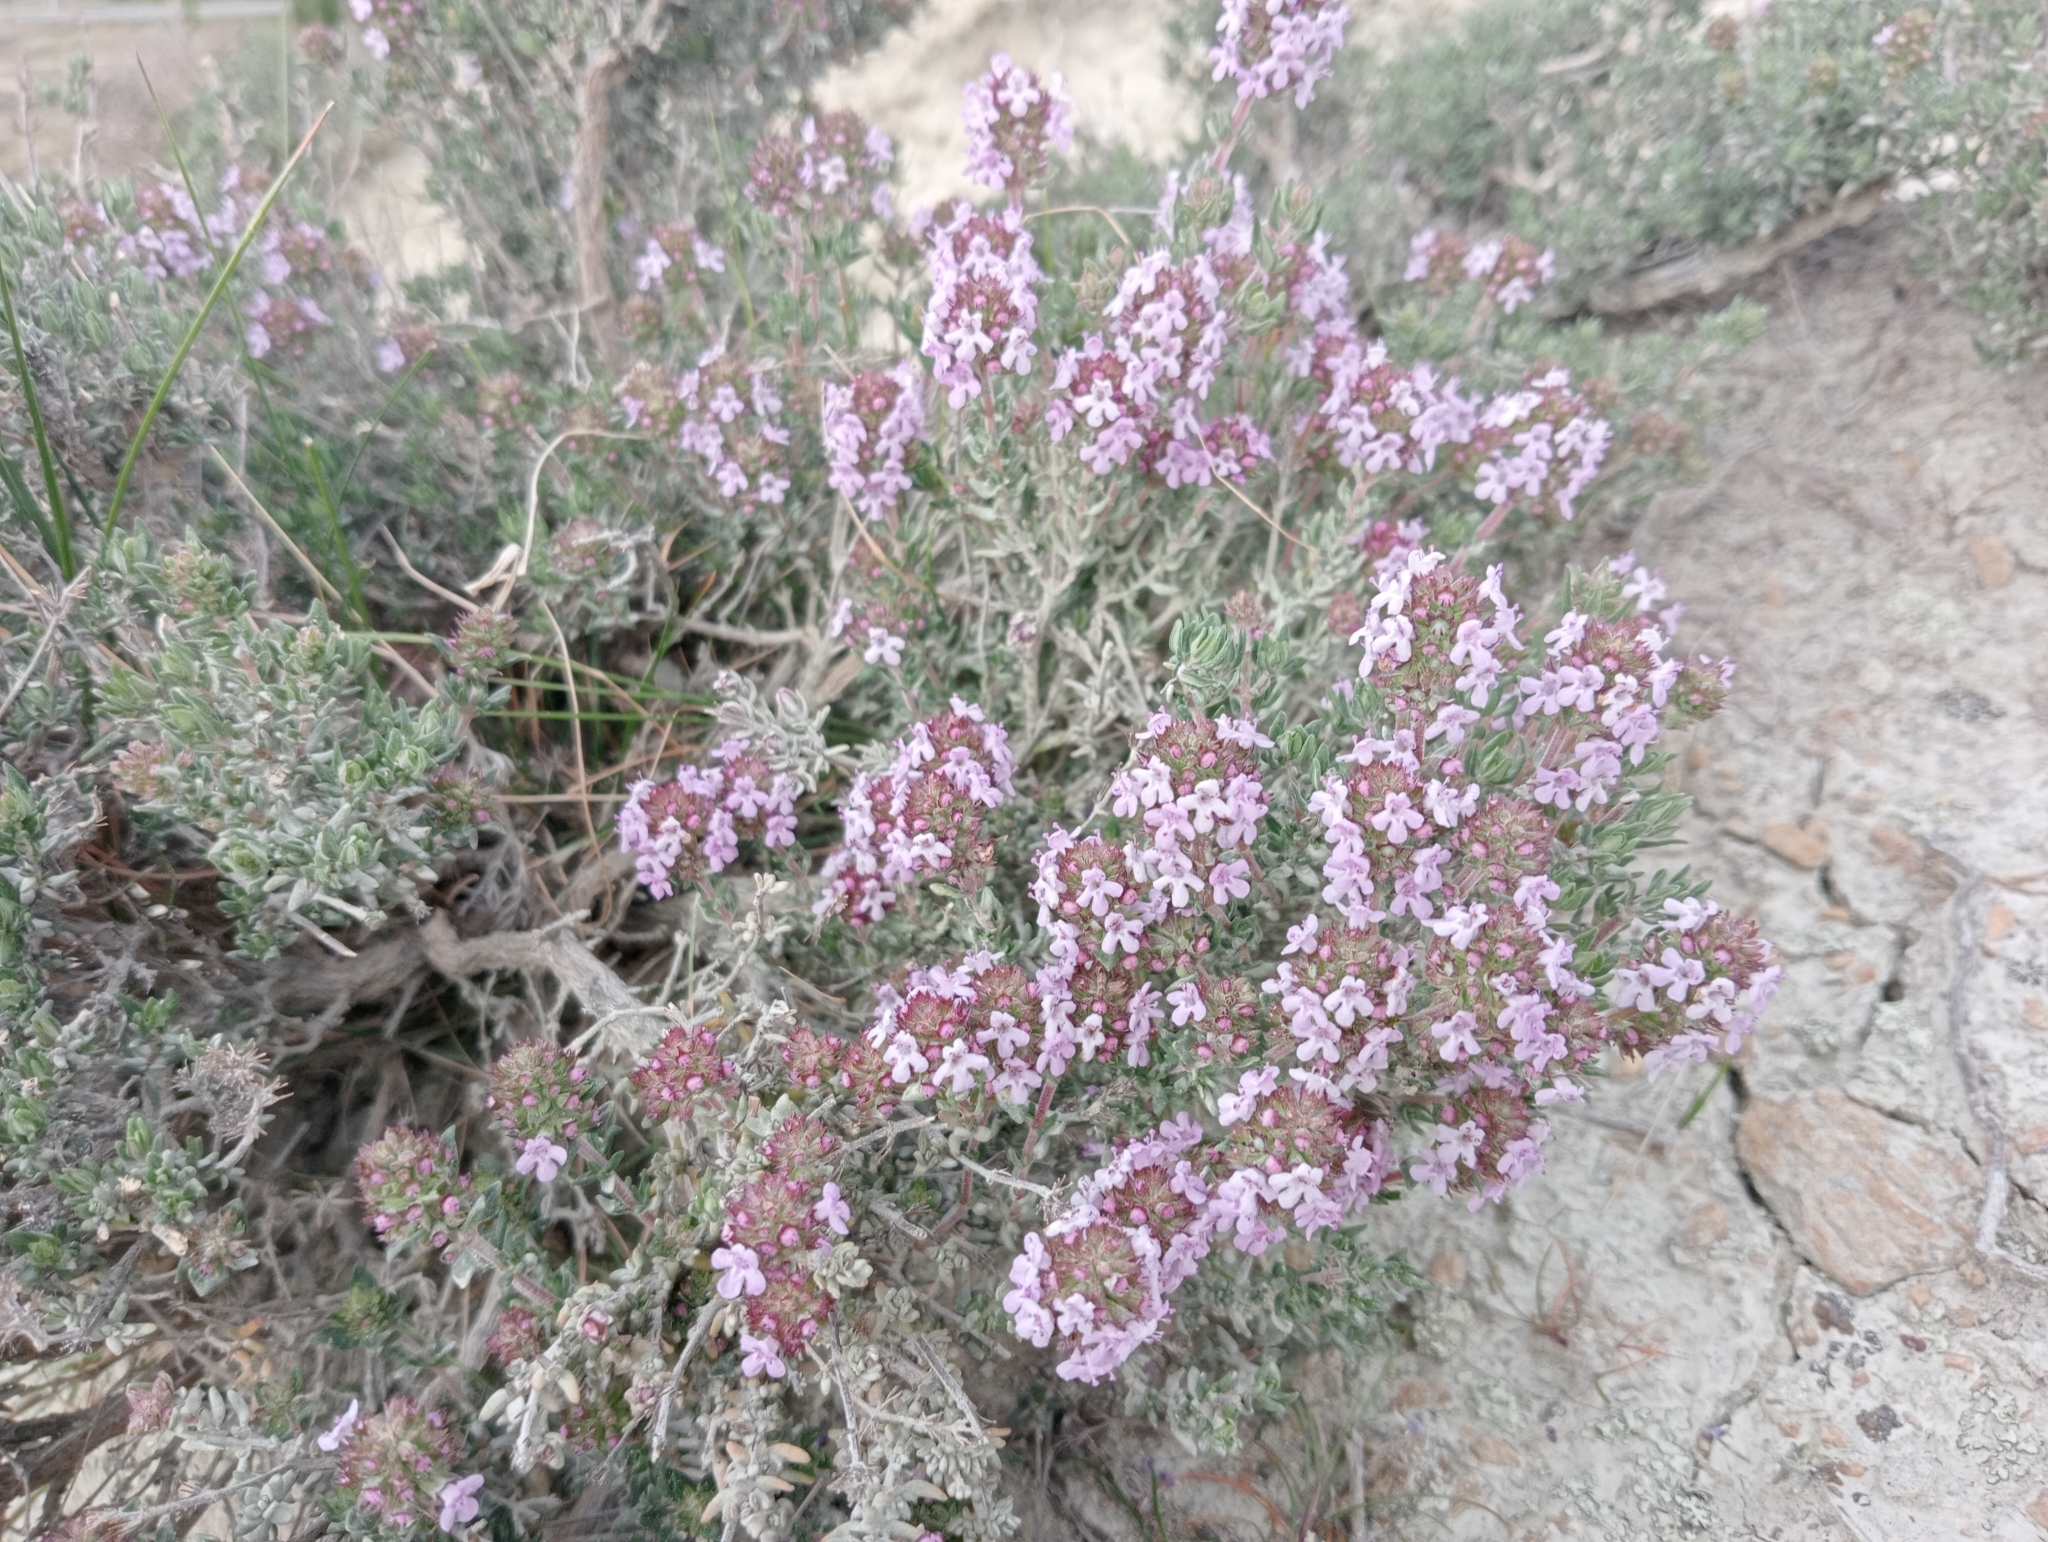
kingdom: Plantae
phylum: Tracheophyta
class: Magnoliopsida
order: Lamiales
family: Lamiaceae
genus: Thymus
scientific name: Thymus vulgaris
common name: Garden thyme
